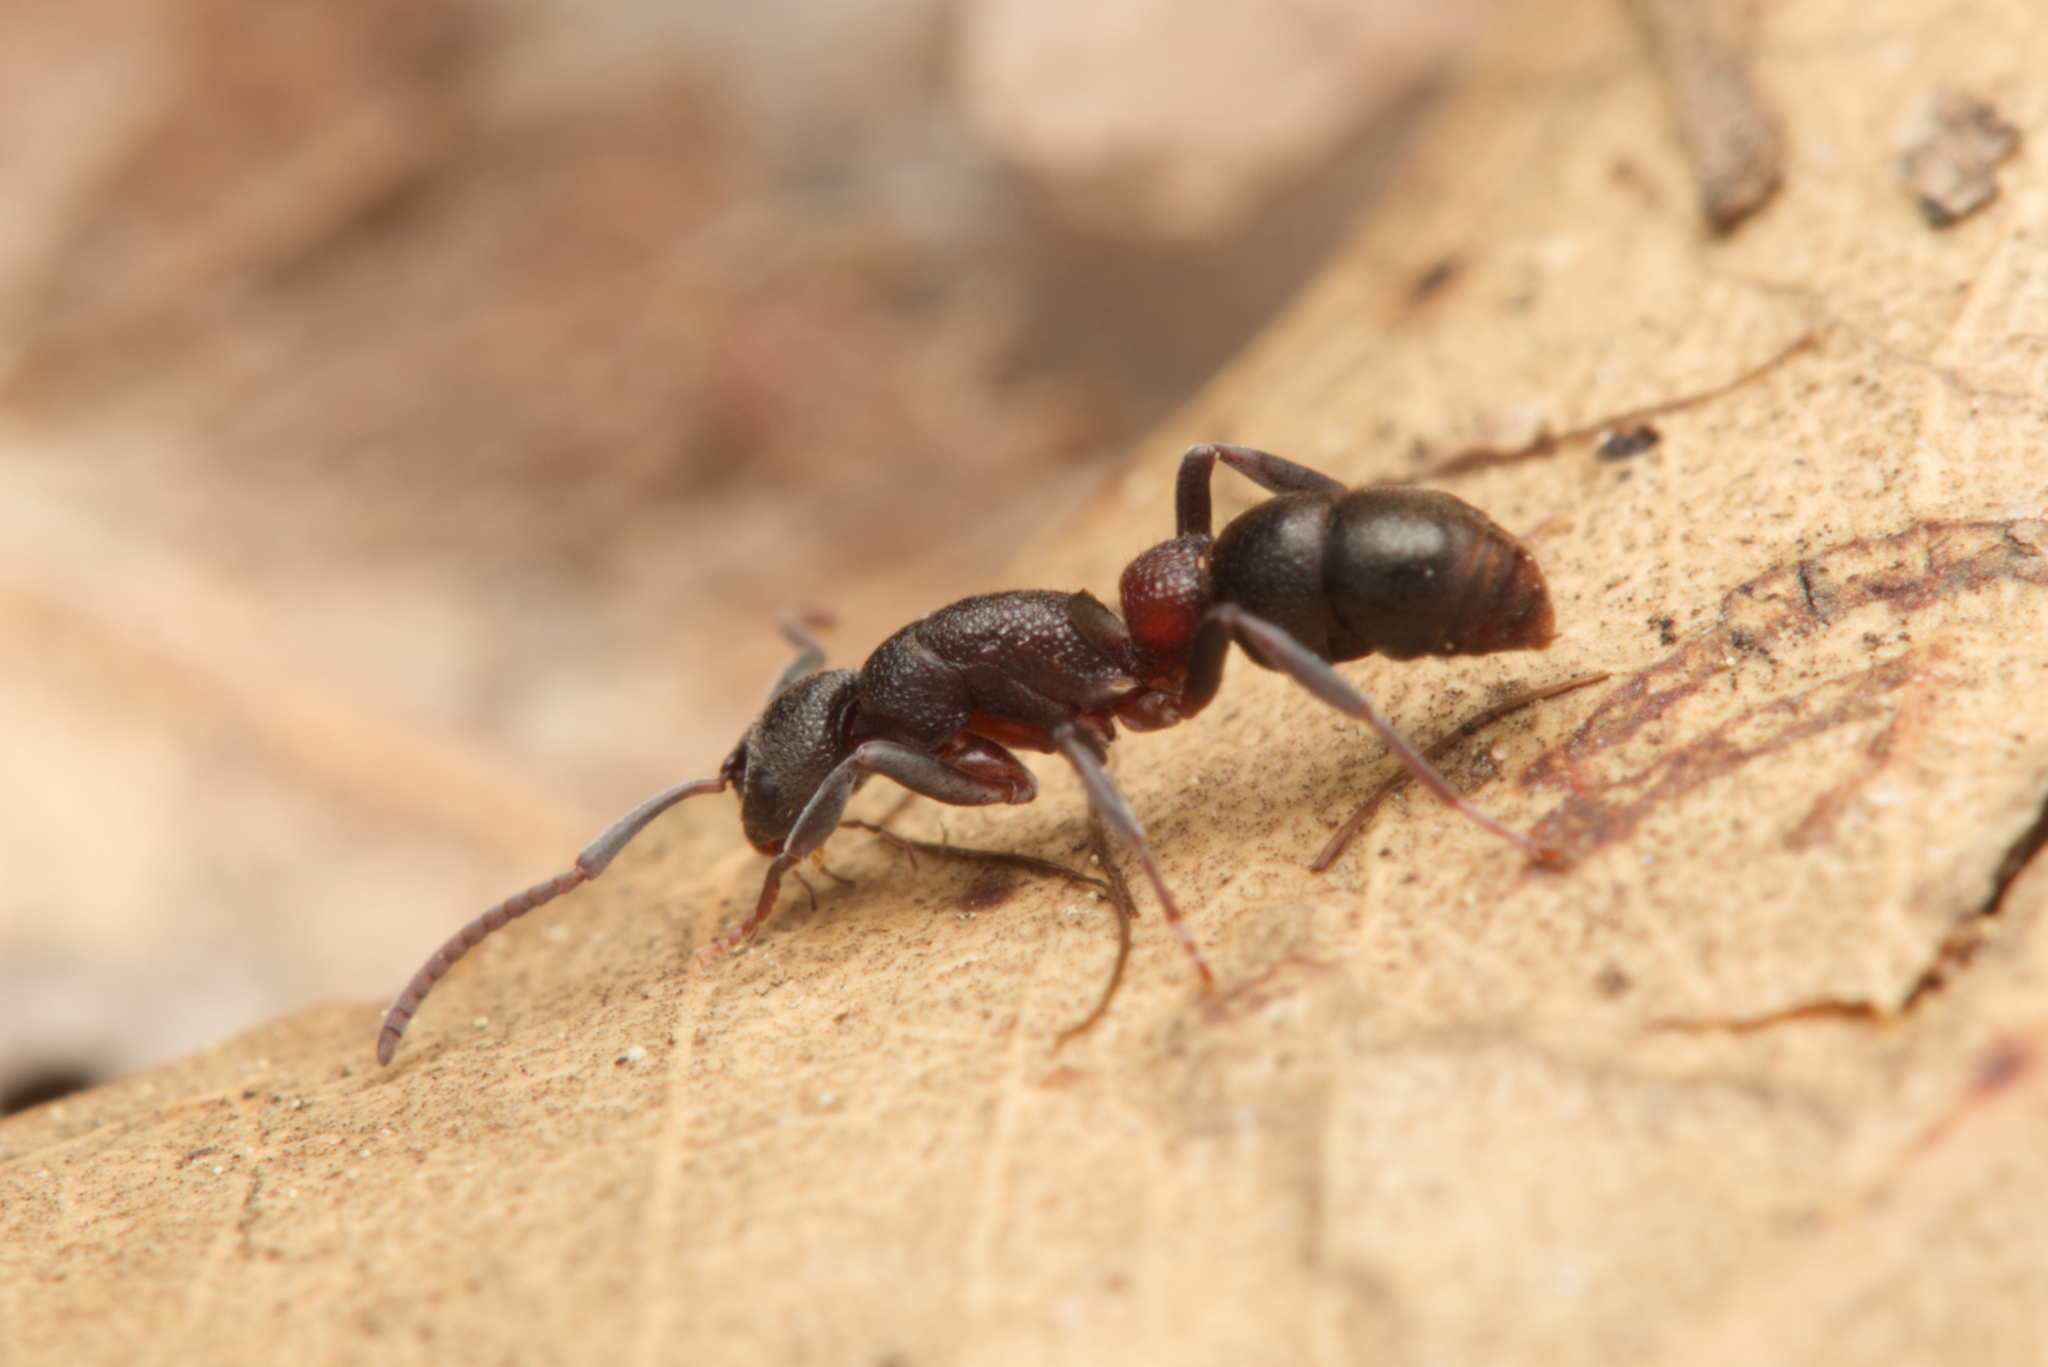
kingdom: Animalia
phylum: Arthropoda
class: Insecta
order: Hymenoptera
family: Formicidae
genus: Platythyrea
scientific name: Platythyrea turneri
